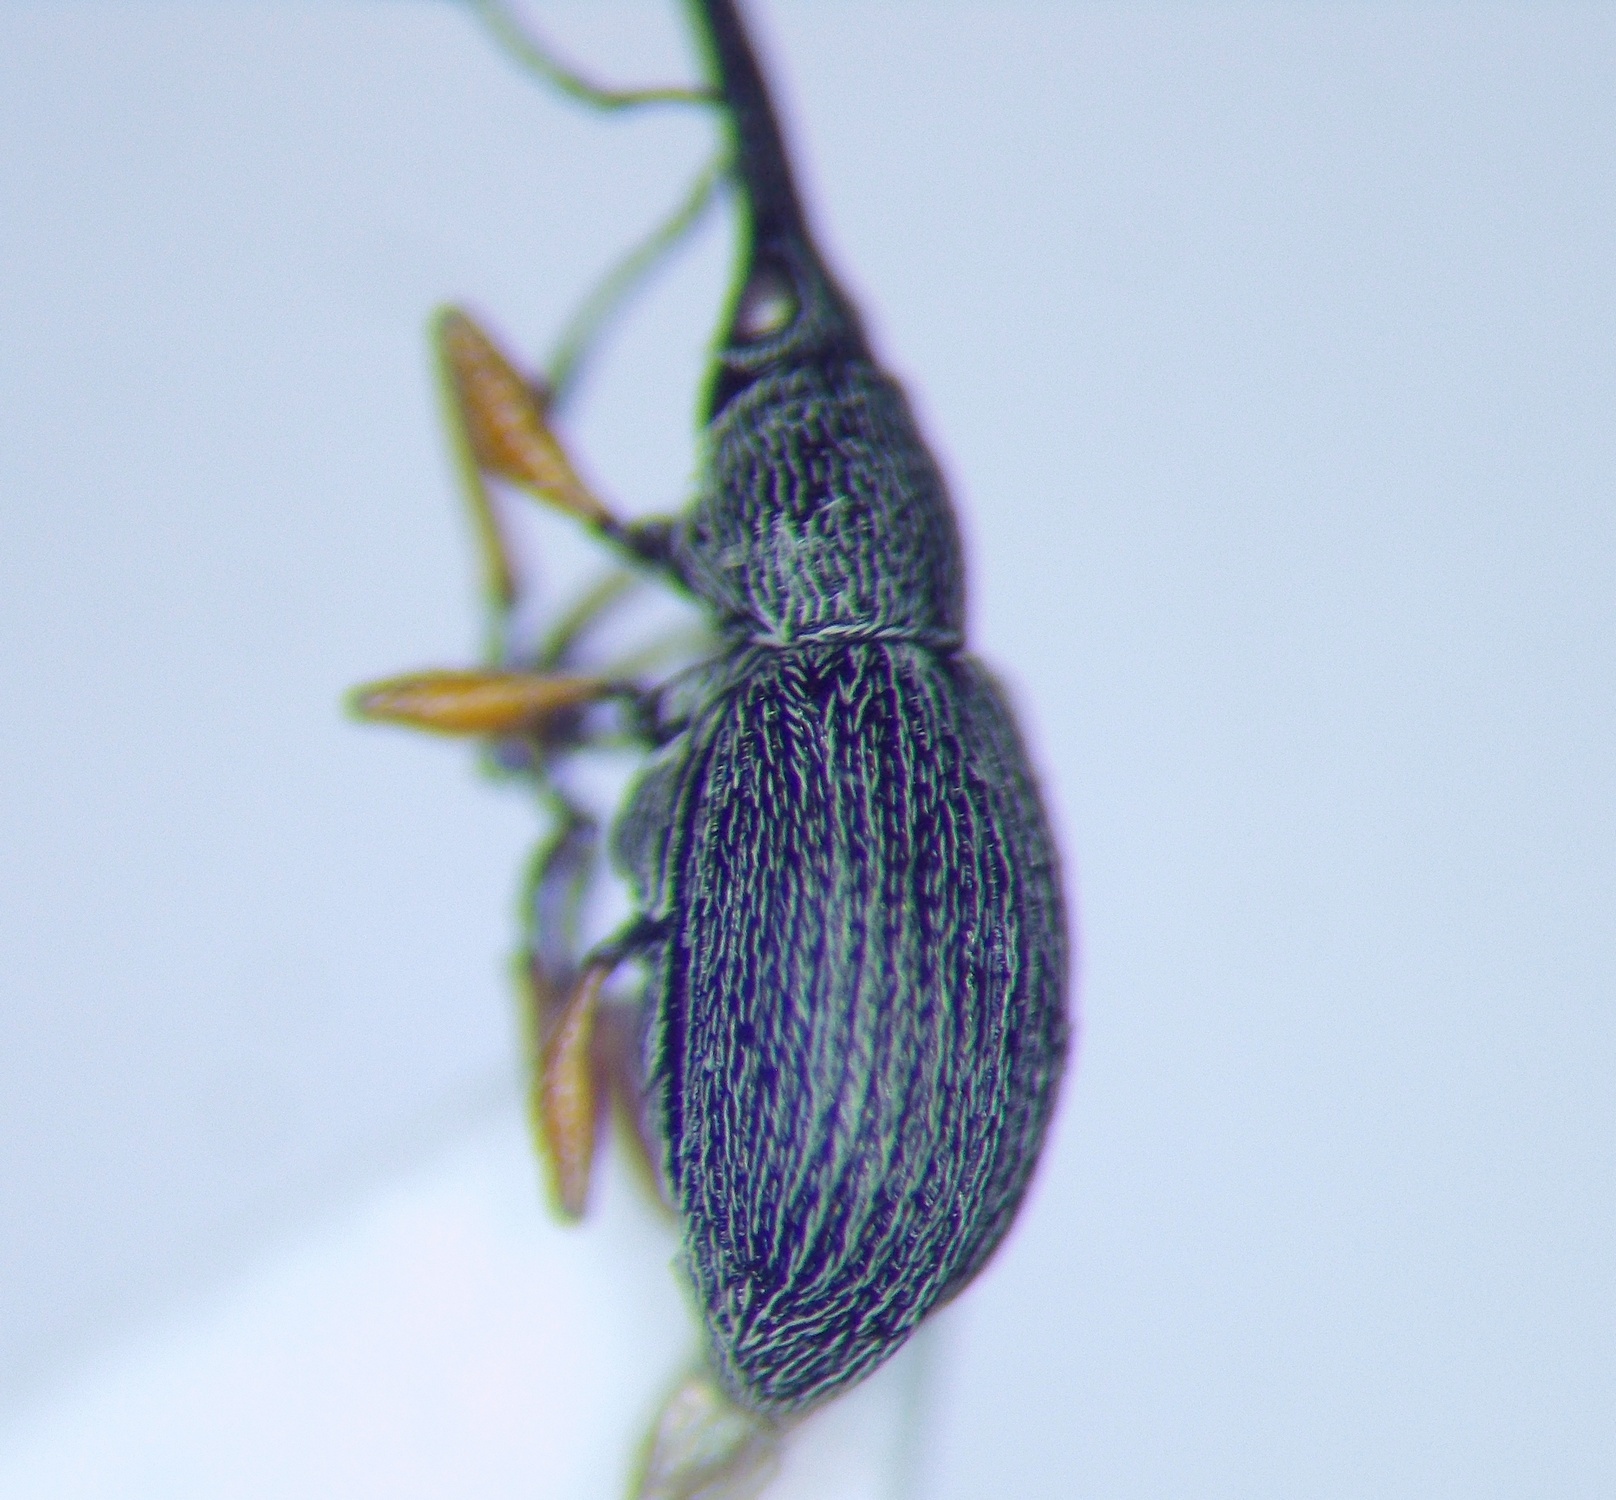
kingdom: Animalia
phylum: Arthropoda
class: Insecta
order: Coleoptera
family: Brentidae
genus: Rhopalapion
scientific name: Rhopalapion longirostre
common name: Hollyhock weevil
